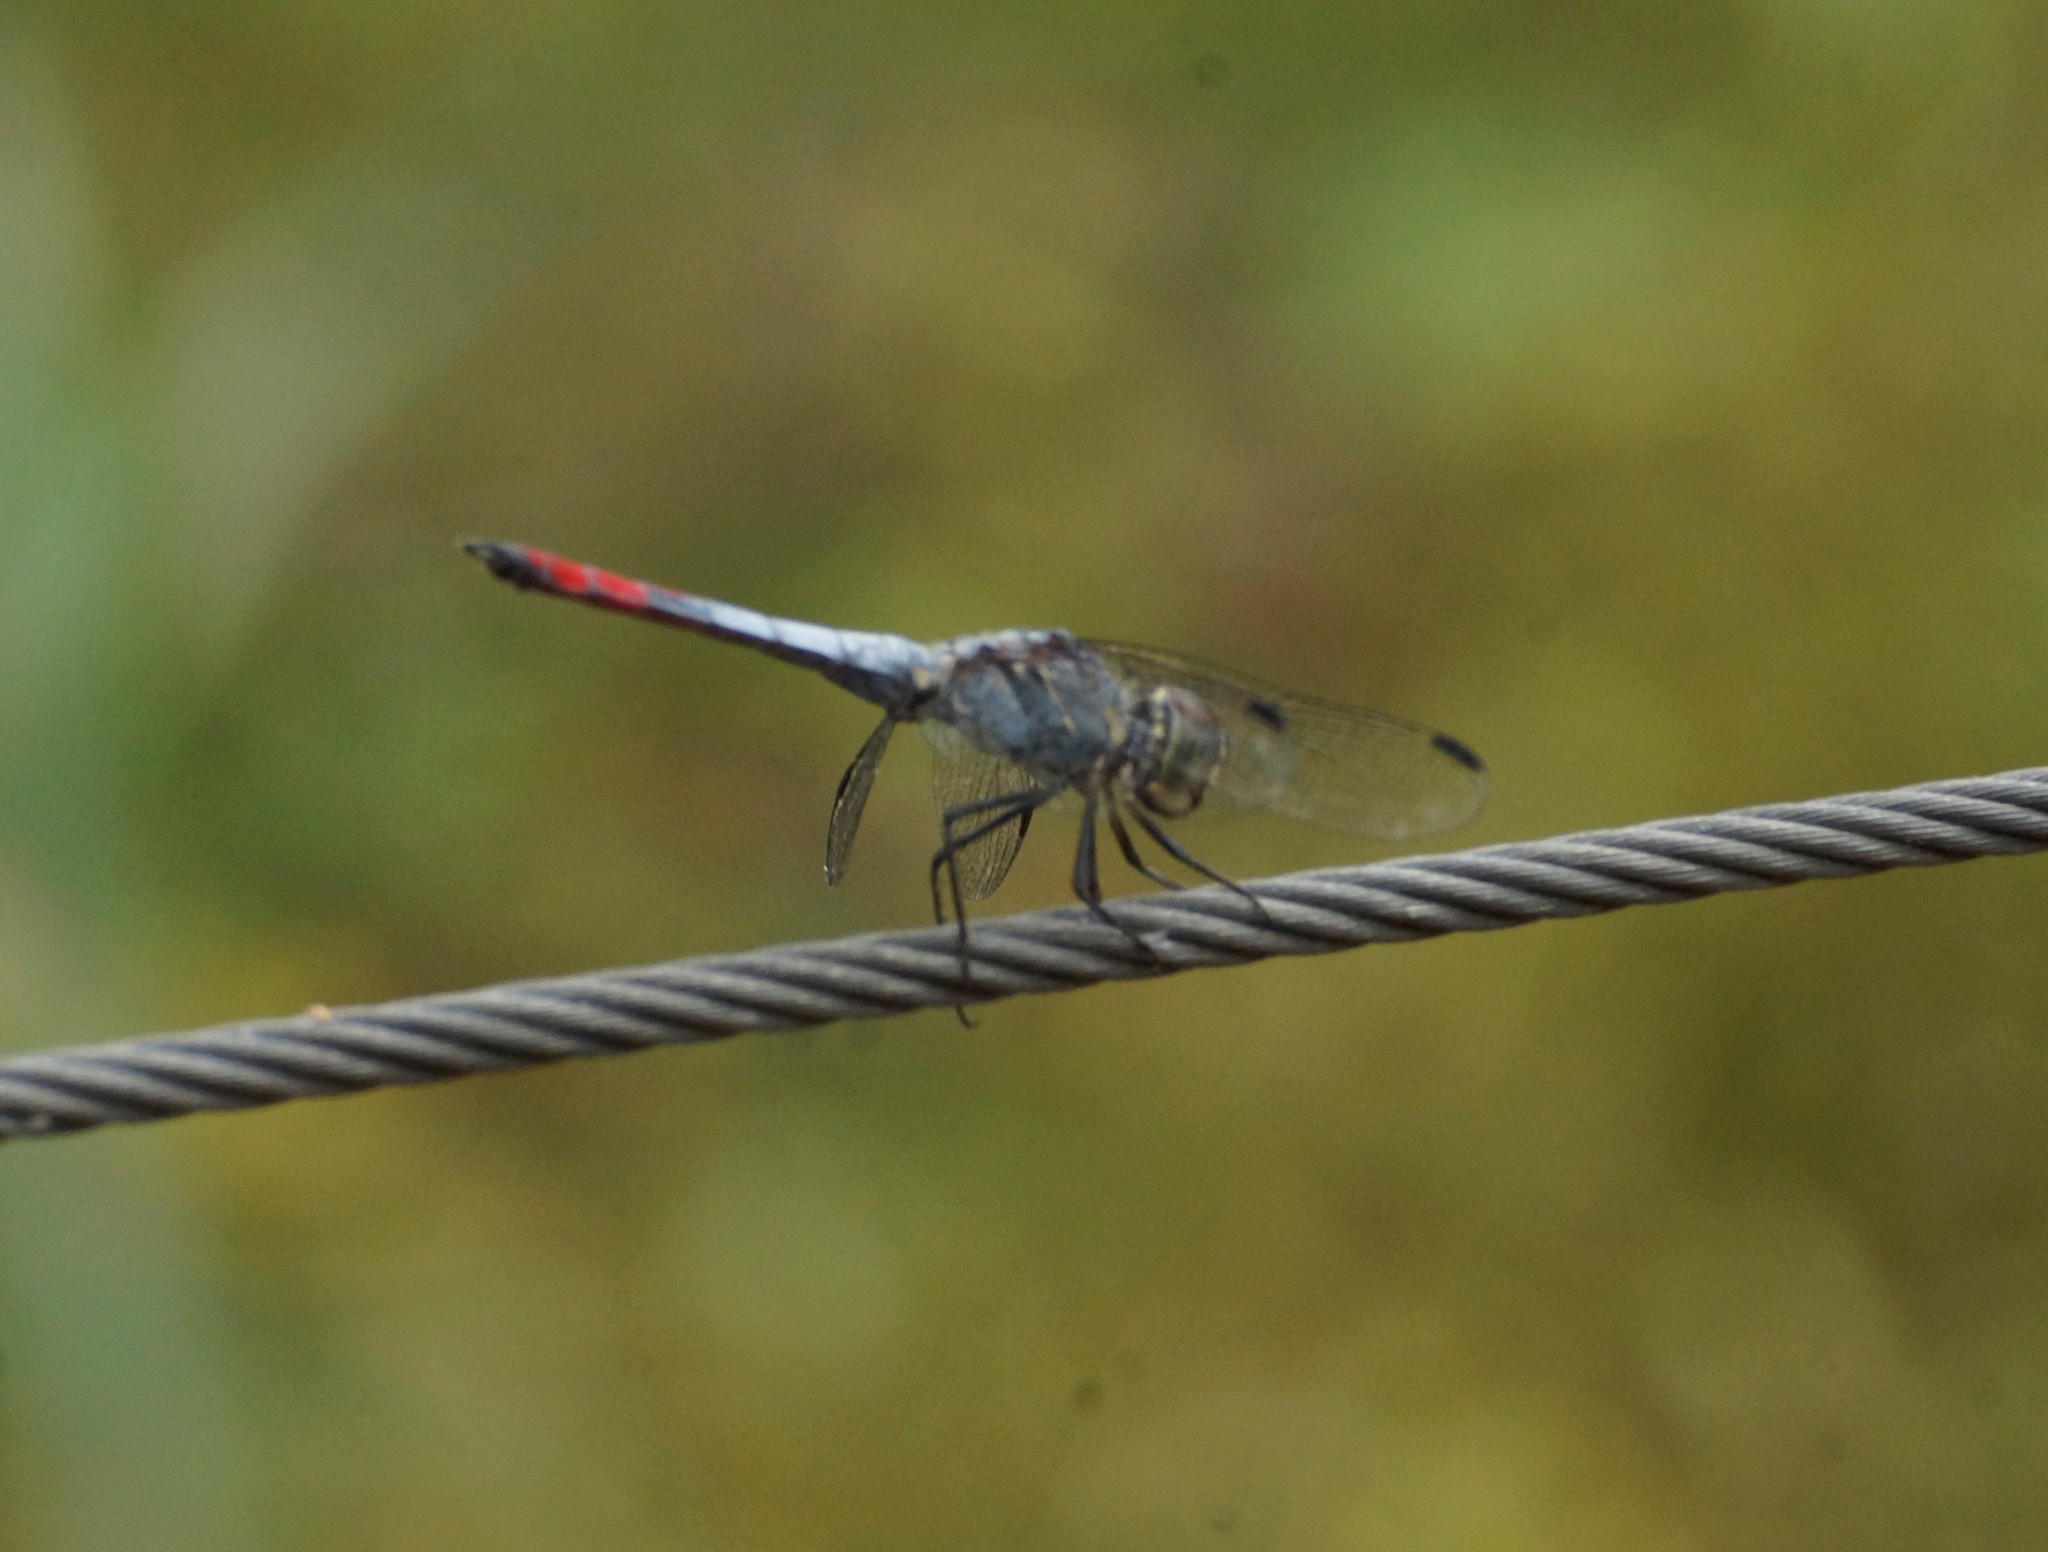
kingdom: Animalia
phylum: Arthropoda
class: Insecta
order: Odonata
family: Libellulidae
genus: Notolibellula
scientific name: Notolibellula bicolor
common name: Bicoloured skimmer
